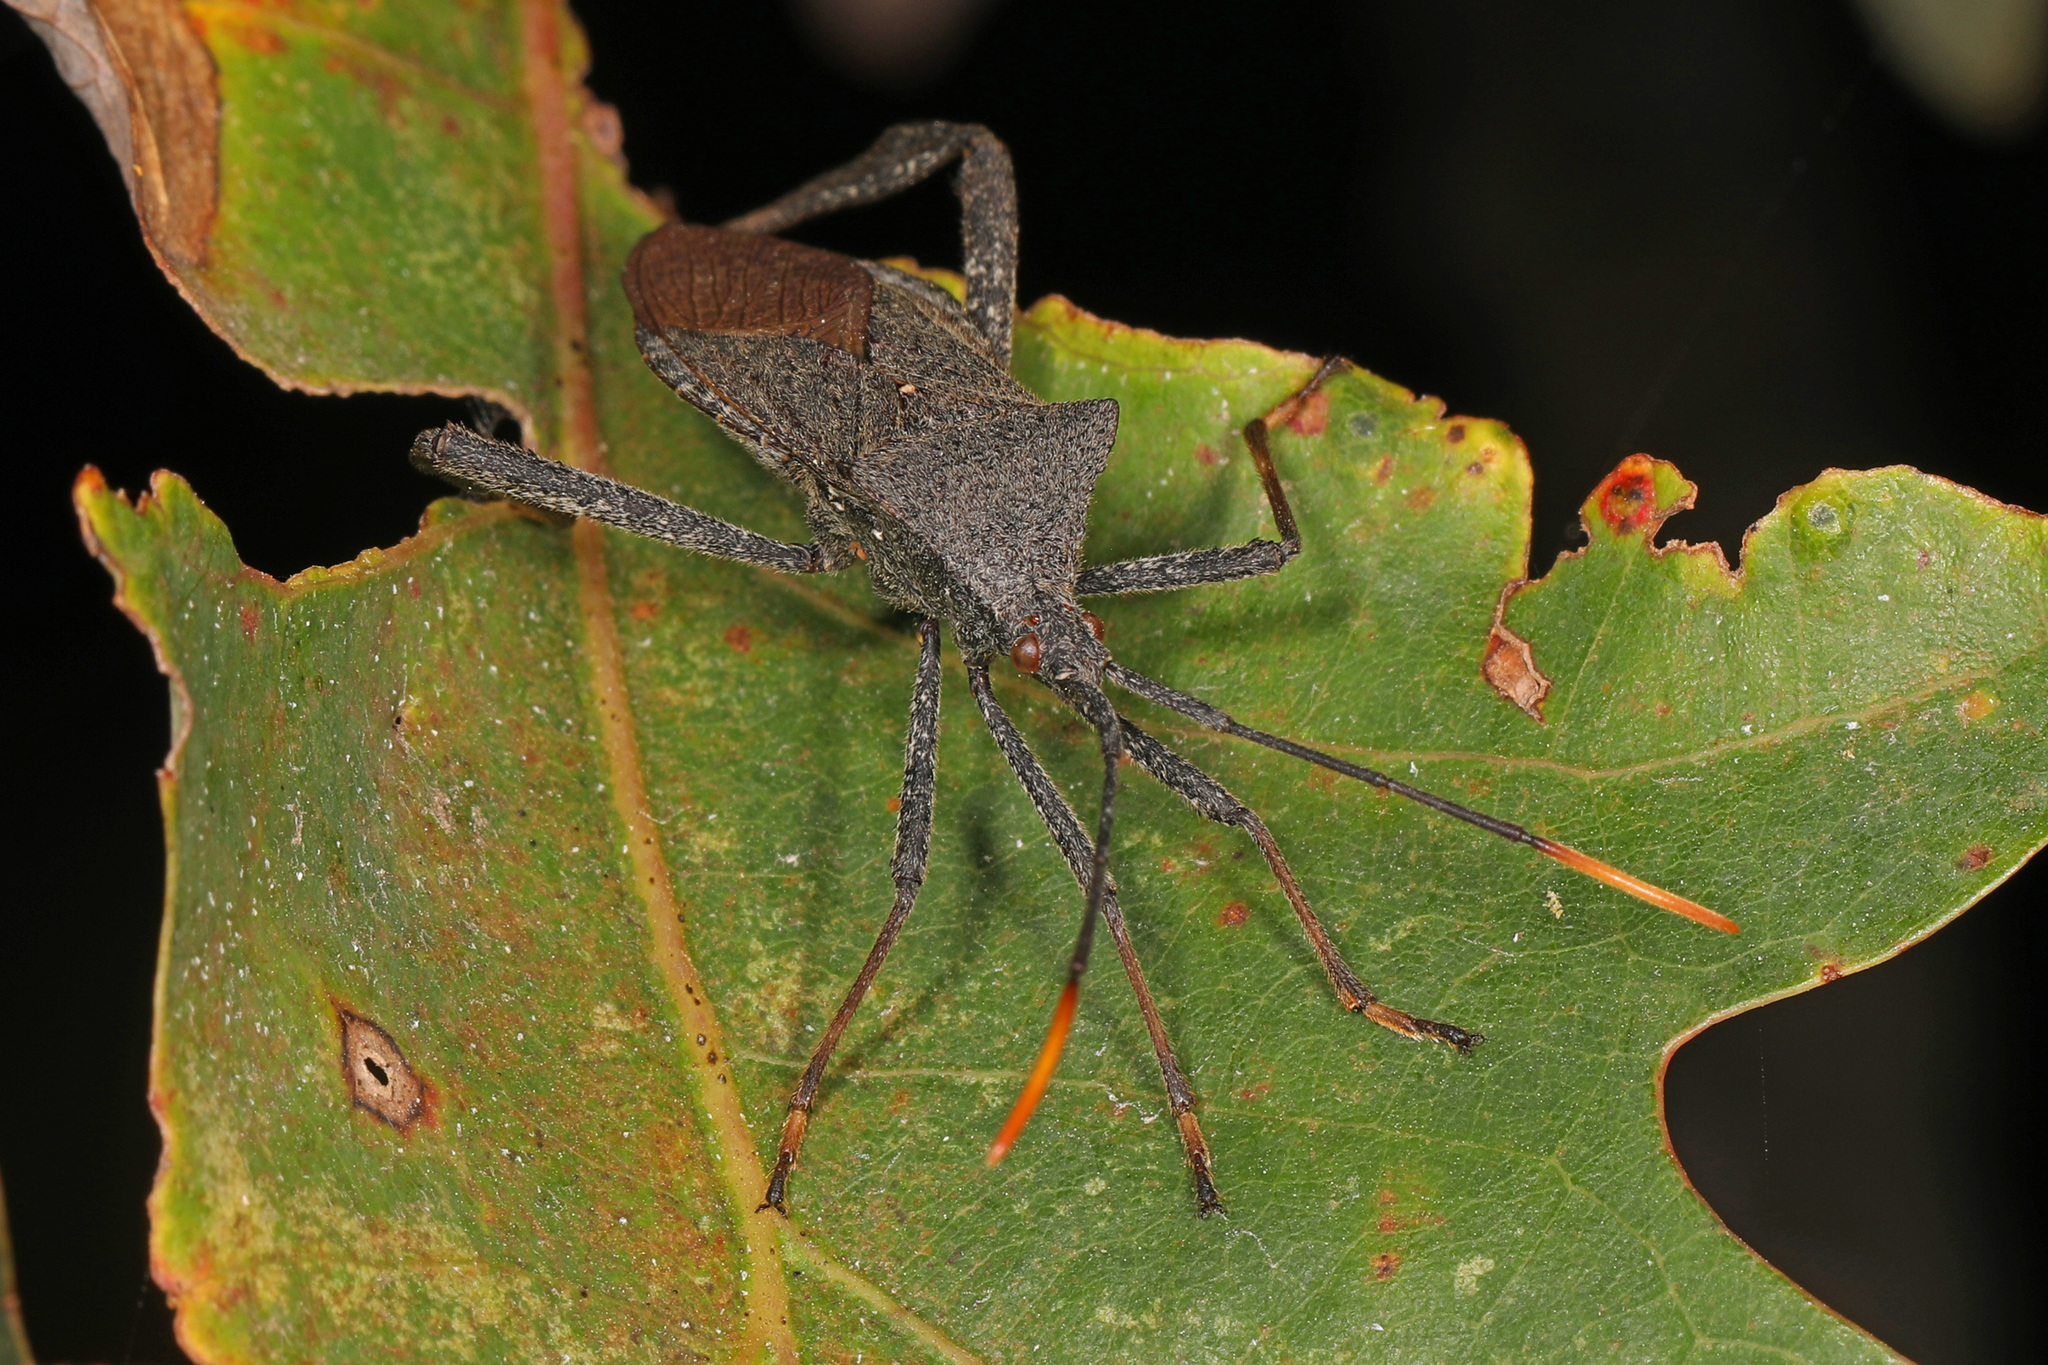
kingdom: Animalia
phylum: Arthropoda
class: Insecta
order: Hemiptera
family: Coreidae
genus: Acanthocephala
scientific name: Acanthocephala terminalis
